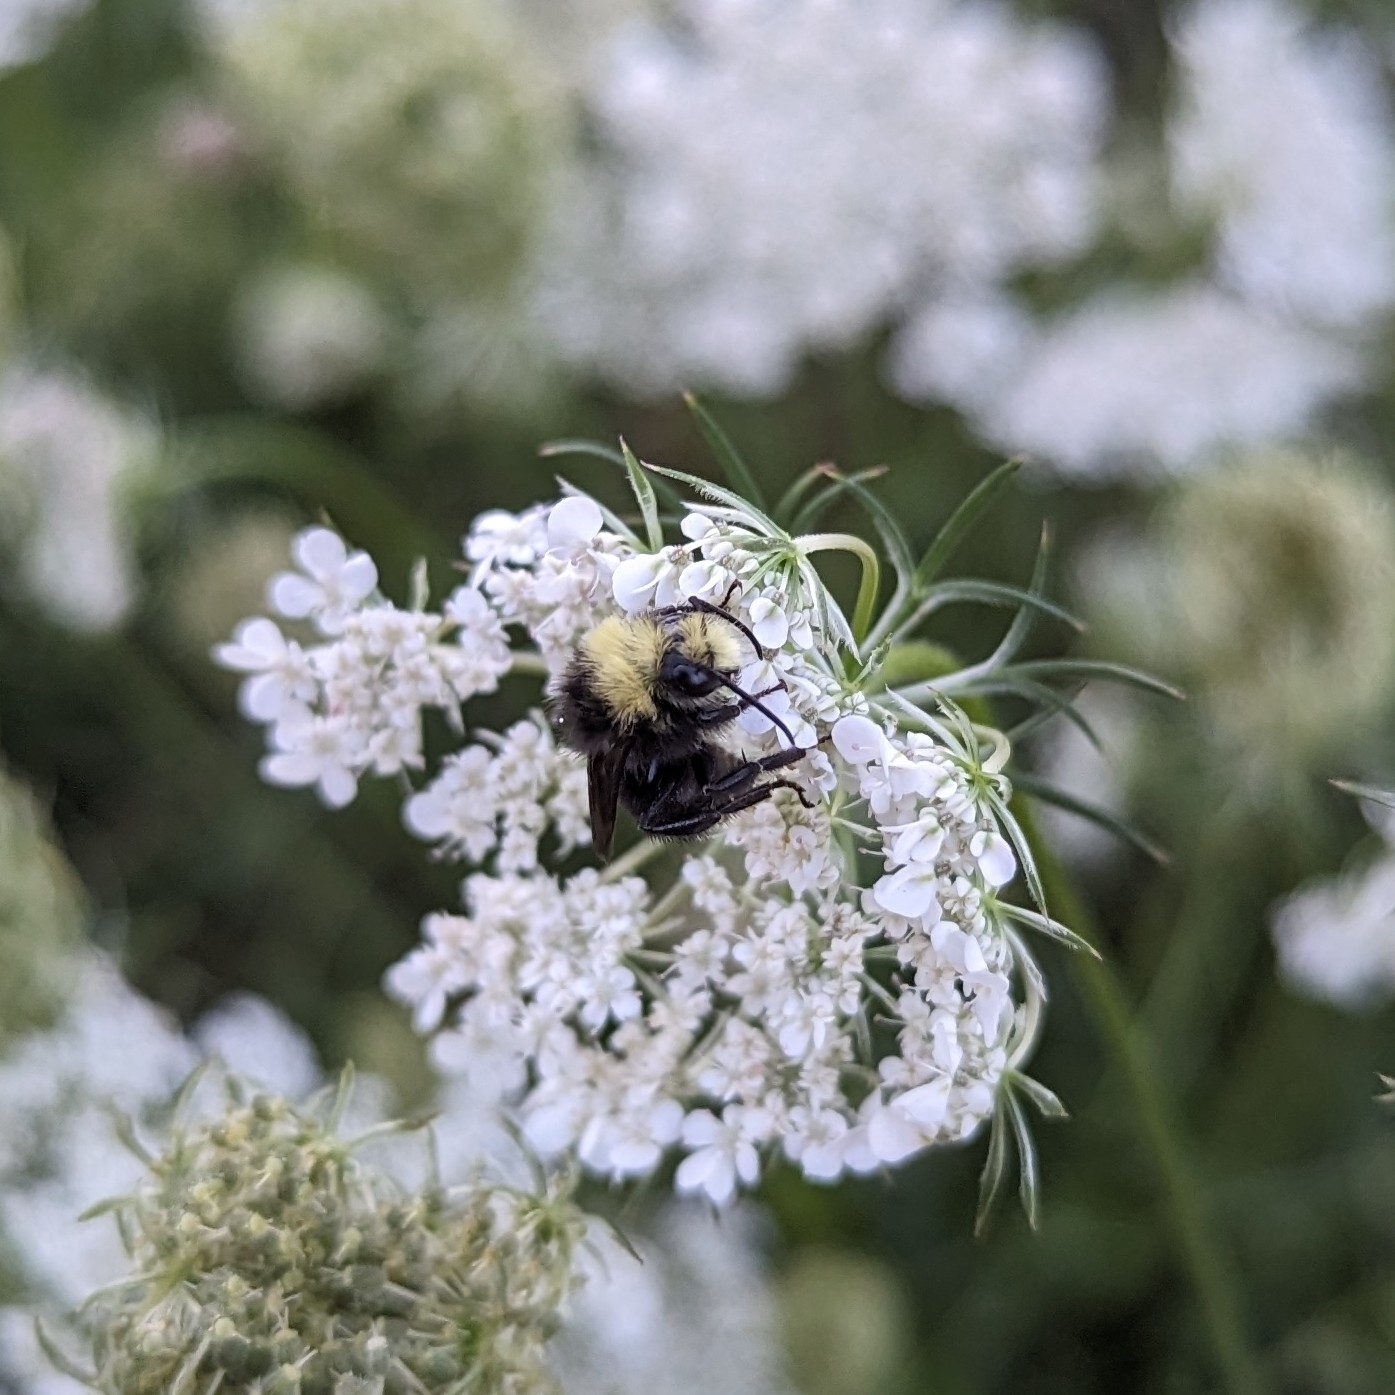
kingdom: Animalia
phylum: Arthropoda
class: Insecta
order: Hymenoptera
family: Apidae
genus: Bombus
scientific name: Bombus vosnesenskii
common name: Vosnesensky bumble bee
